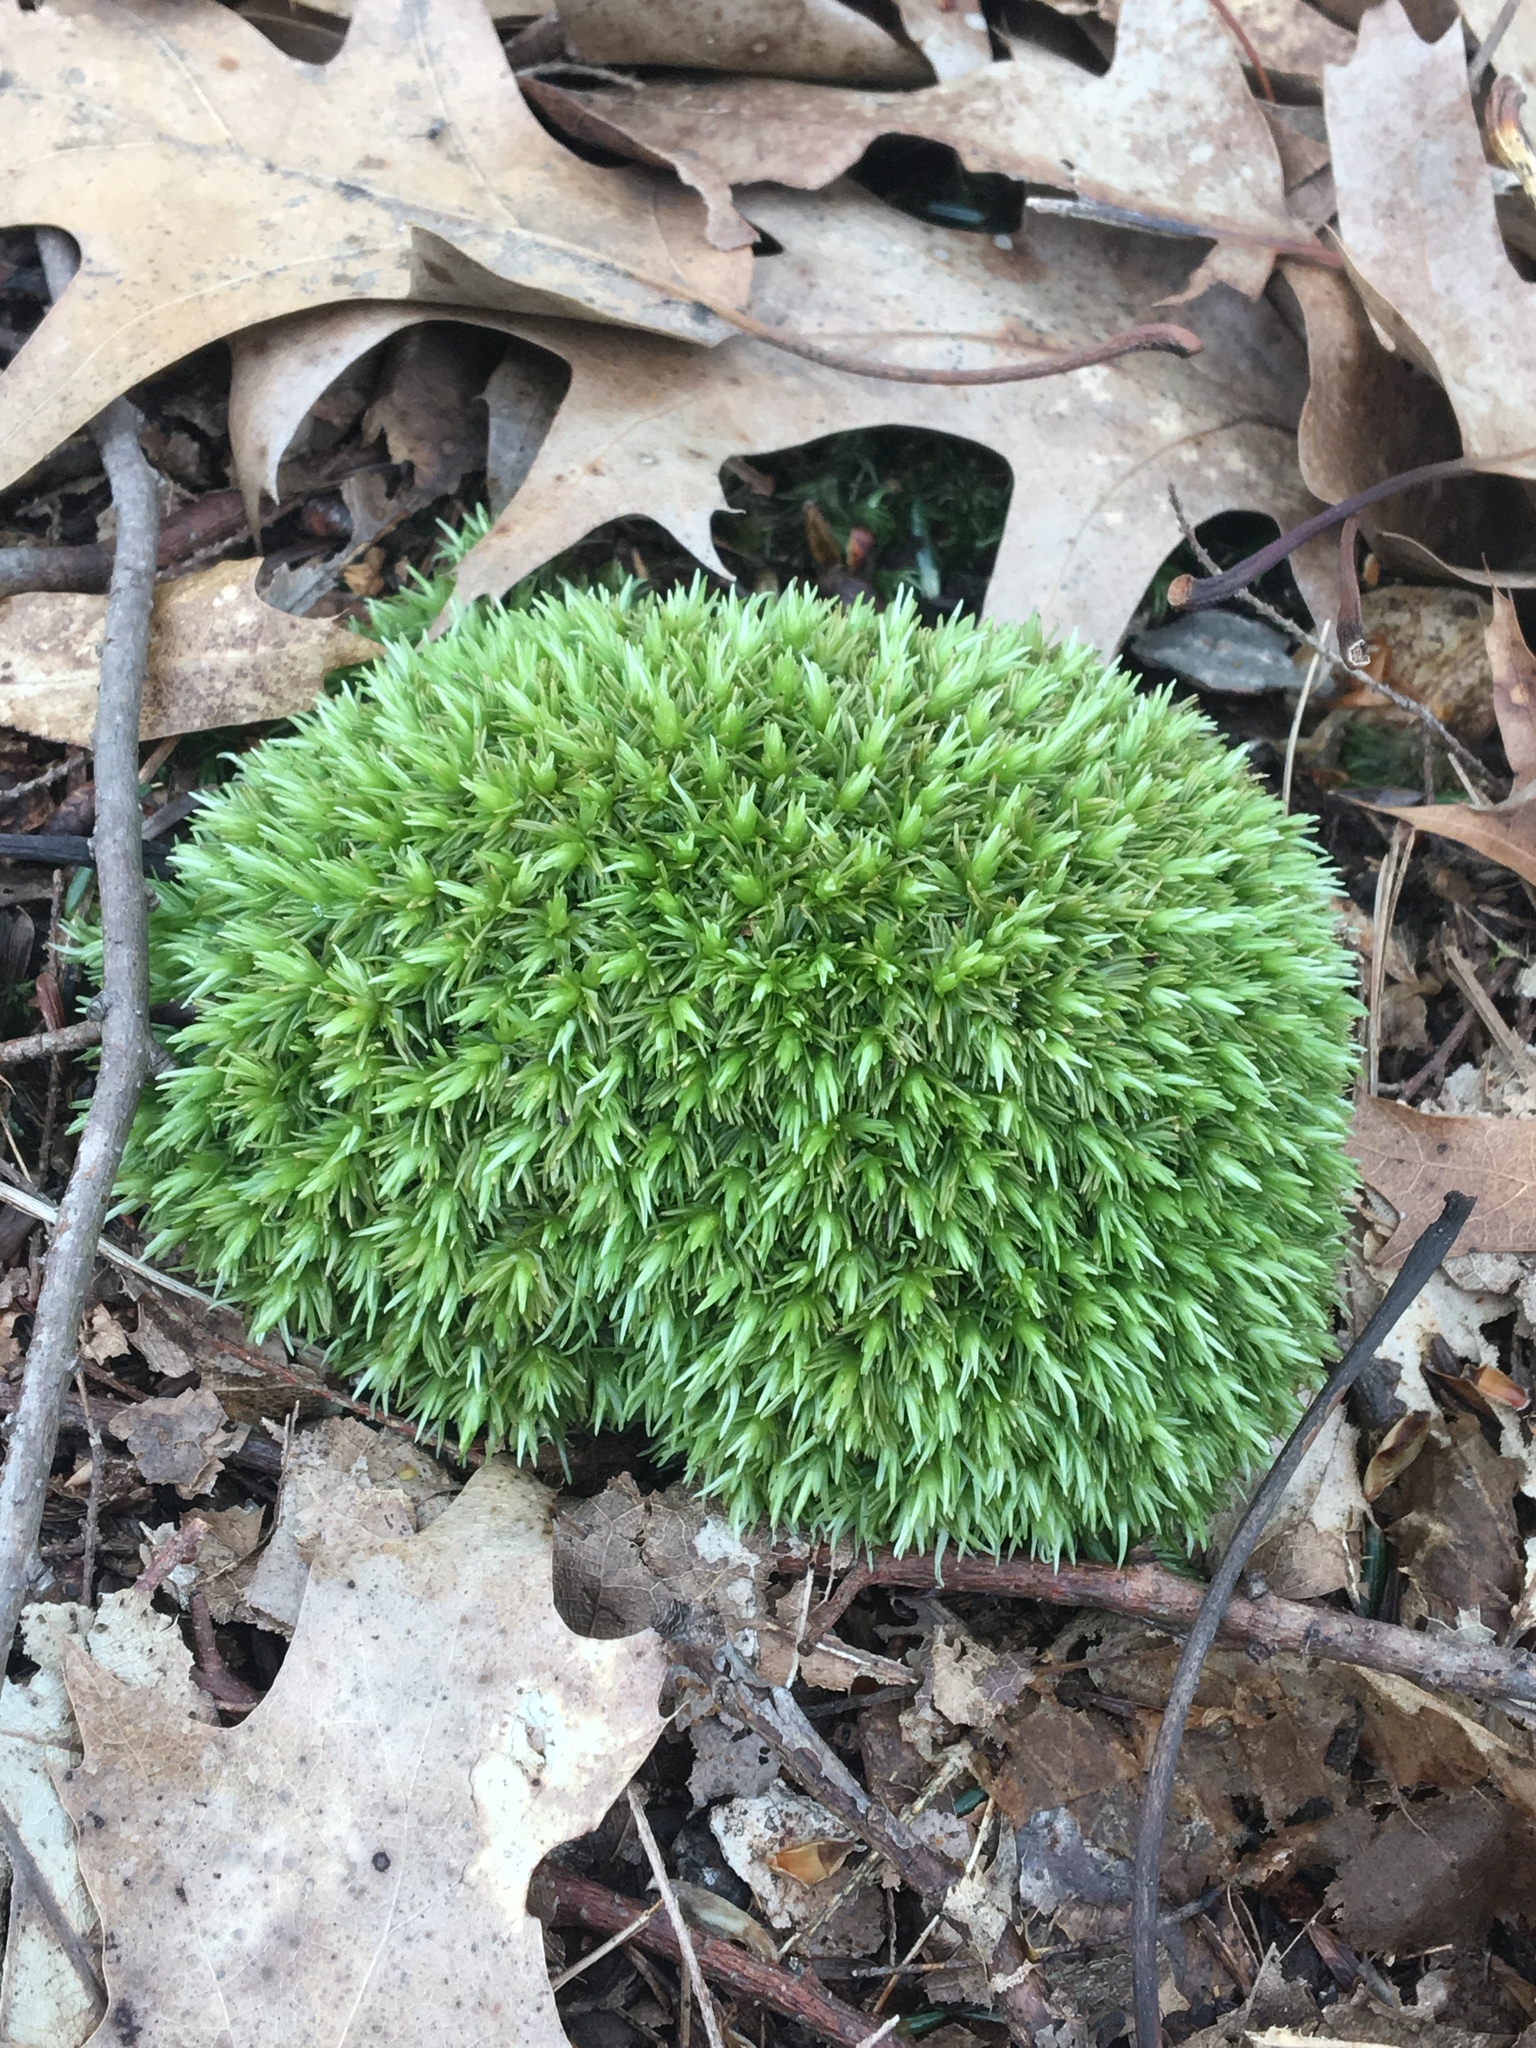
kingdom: Plantae
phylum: Bryophyta
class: Bryopsida
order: Dicranales
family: Leucobryaceae
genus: Leucobryum
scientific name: Leucobryum glaucum
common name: Large white-moss
